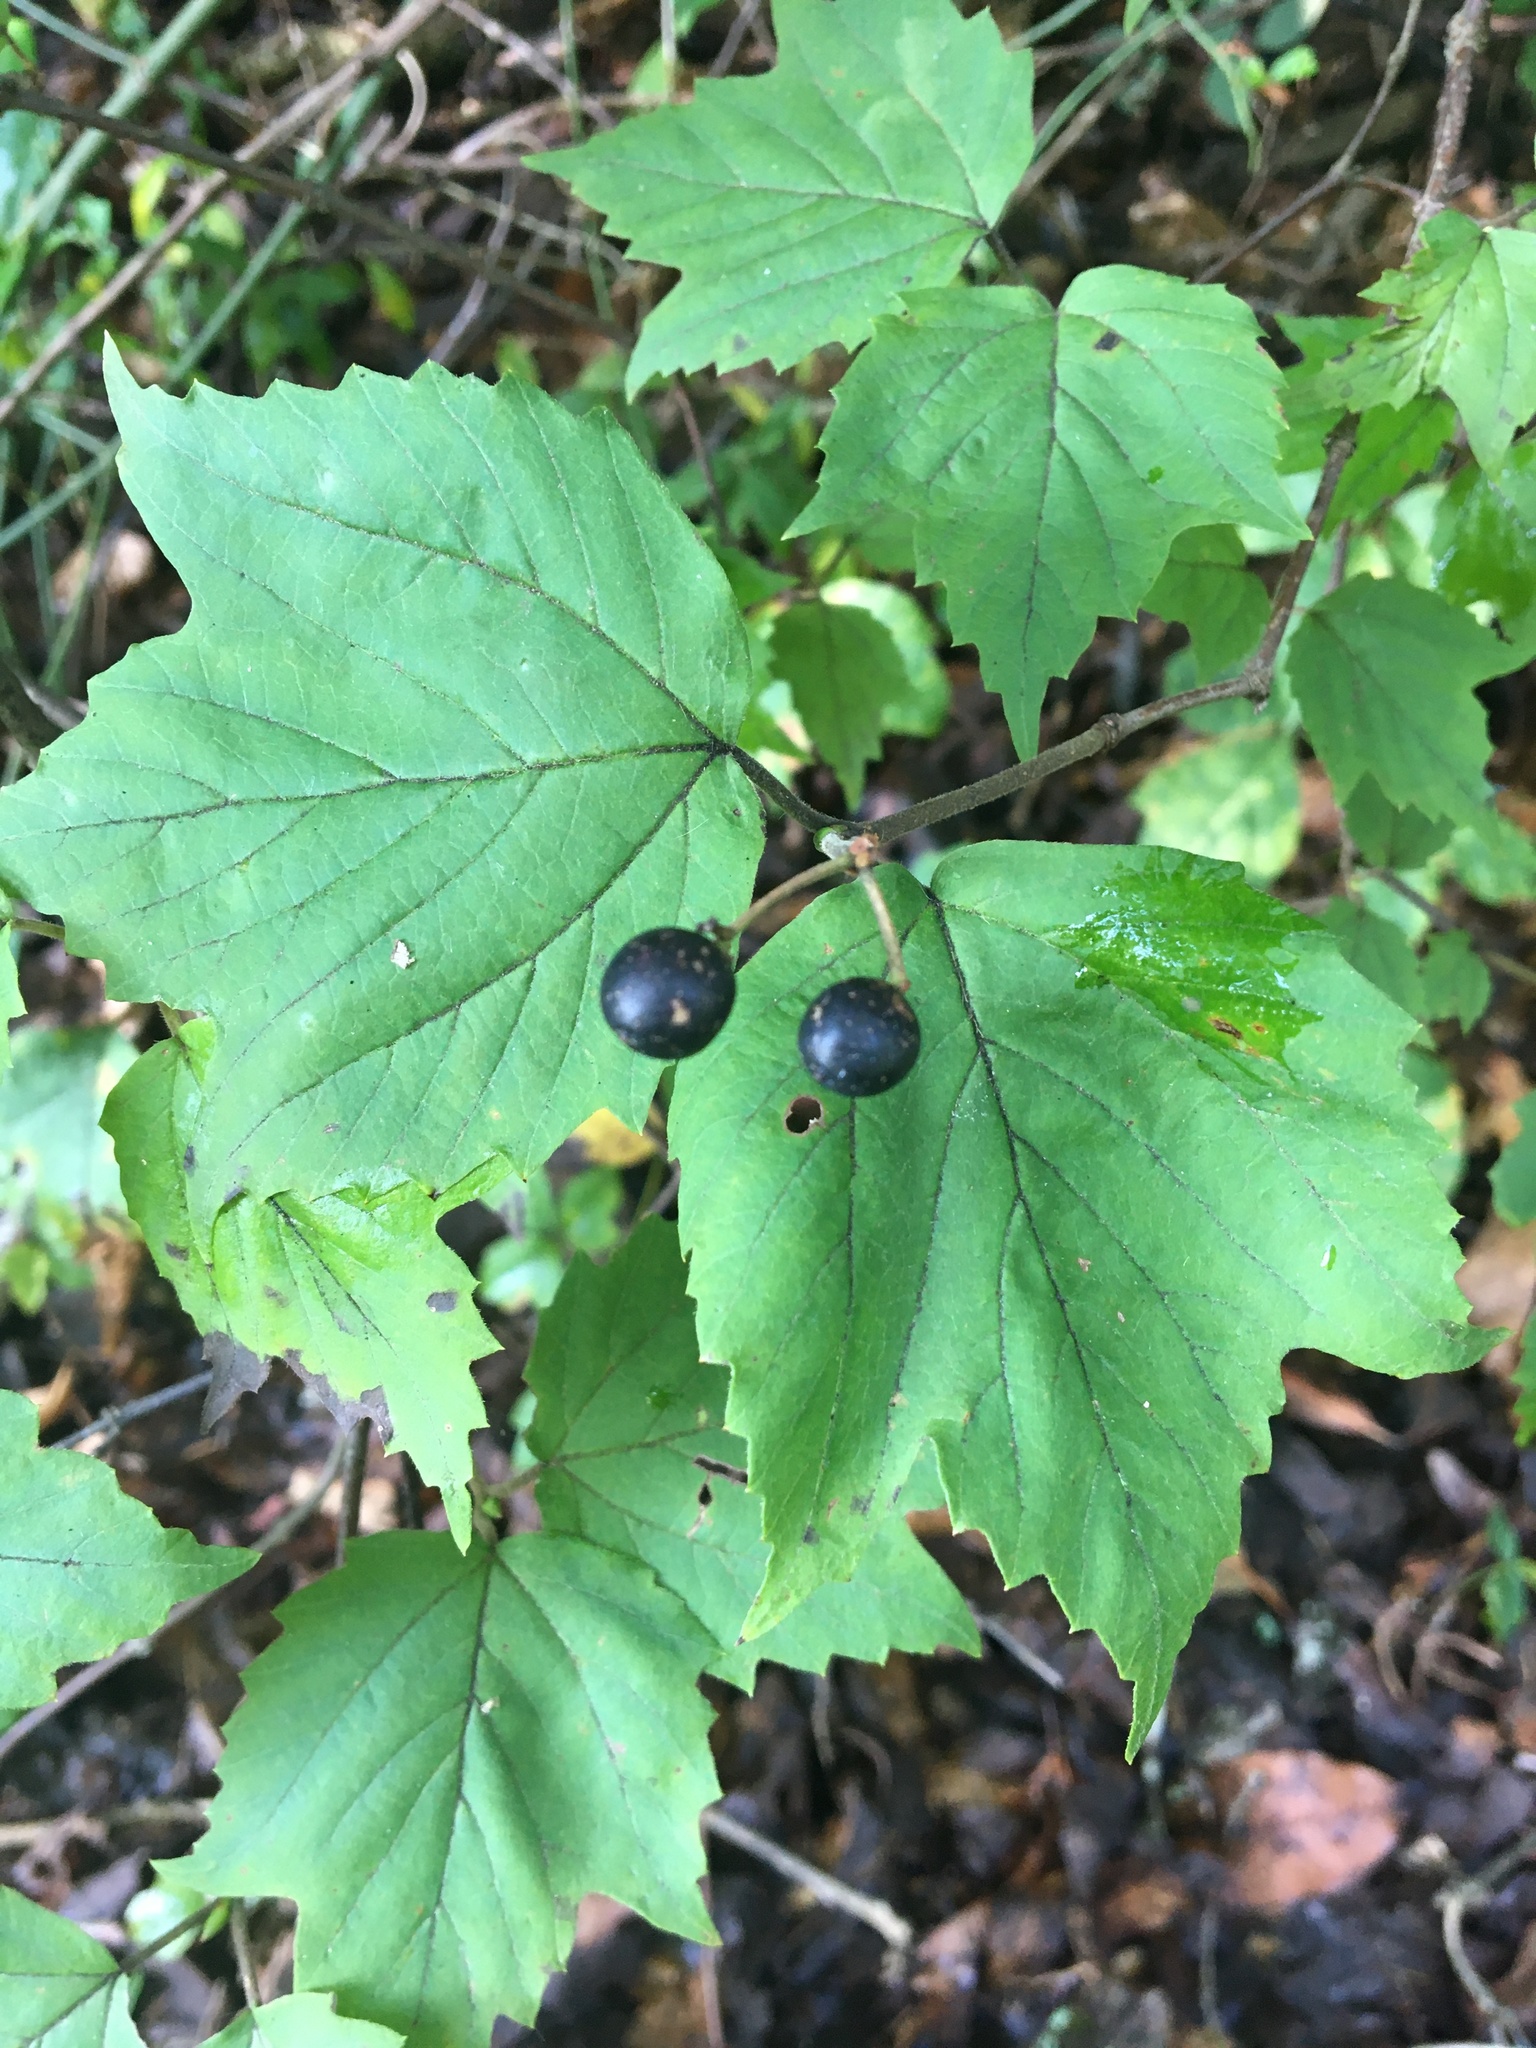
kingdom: Plantae
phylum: Tracheophyta
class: Magnoliopsida
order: Dipsacales
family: Viburnaceae
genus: Viburnum
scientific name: Viburnum acerifolium
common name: Dockmackie
